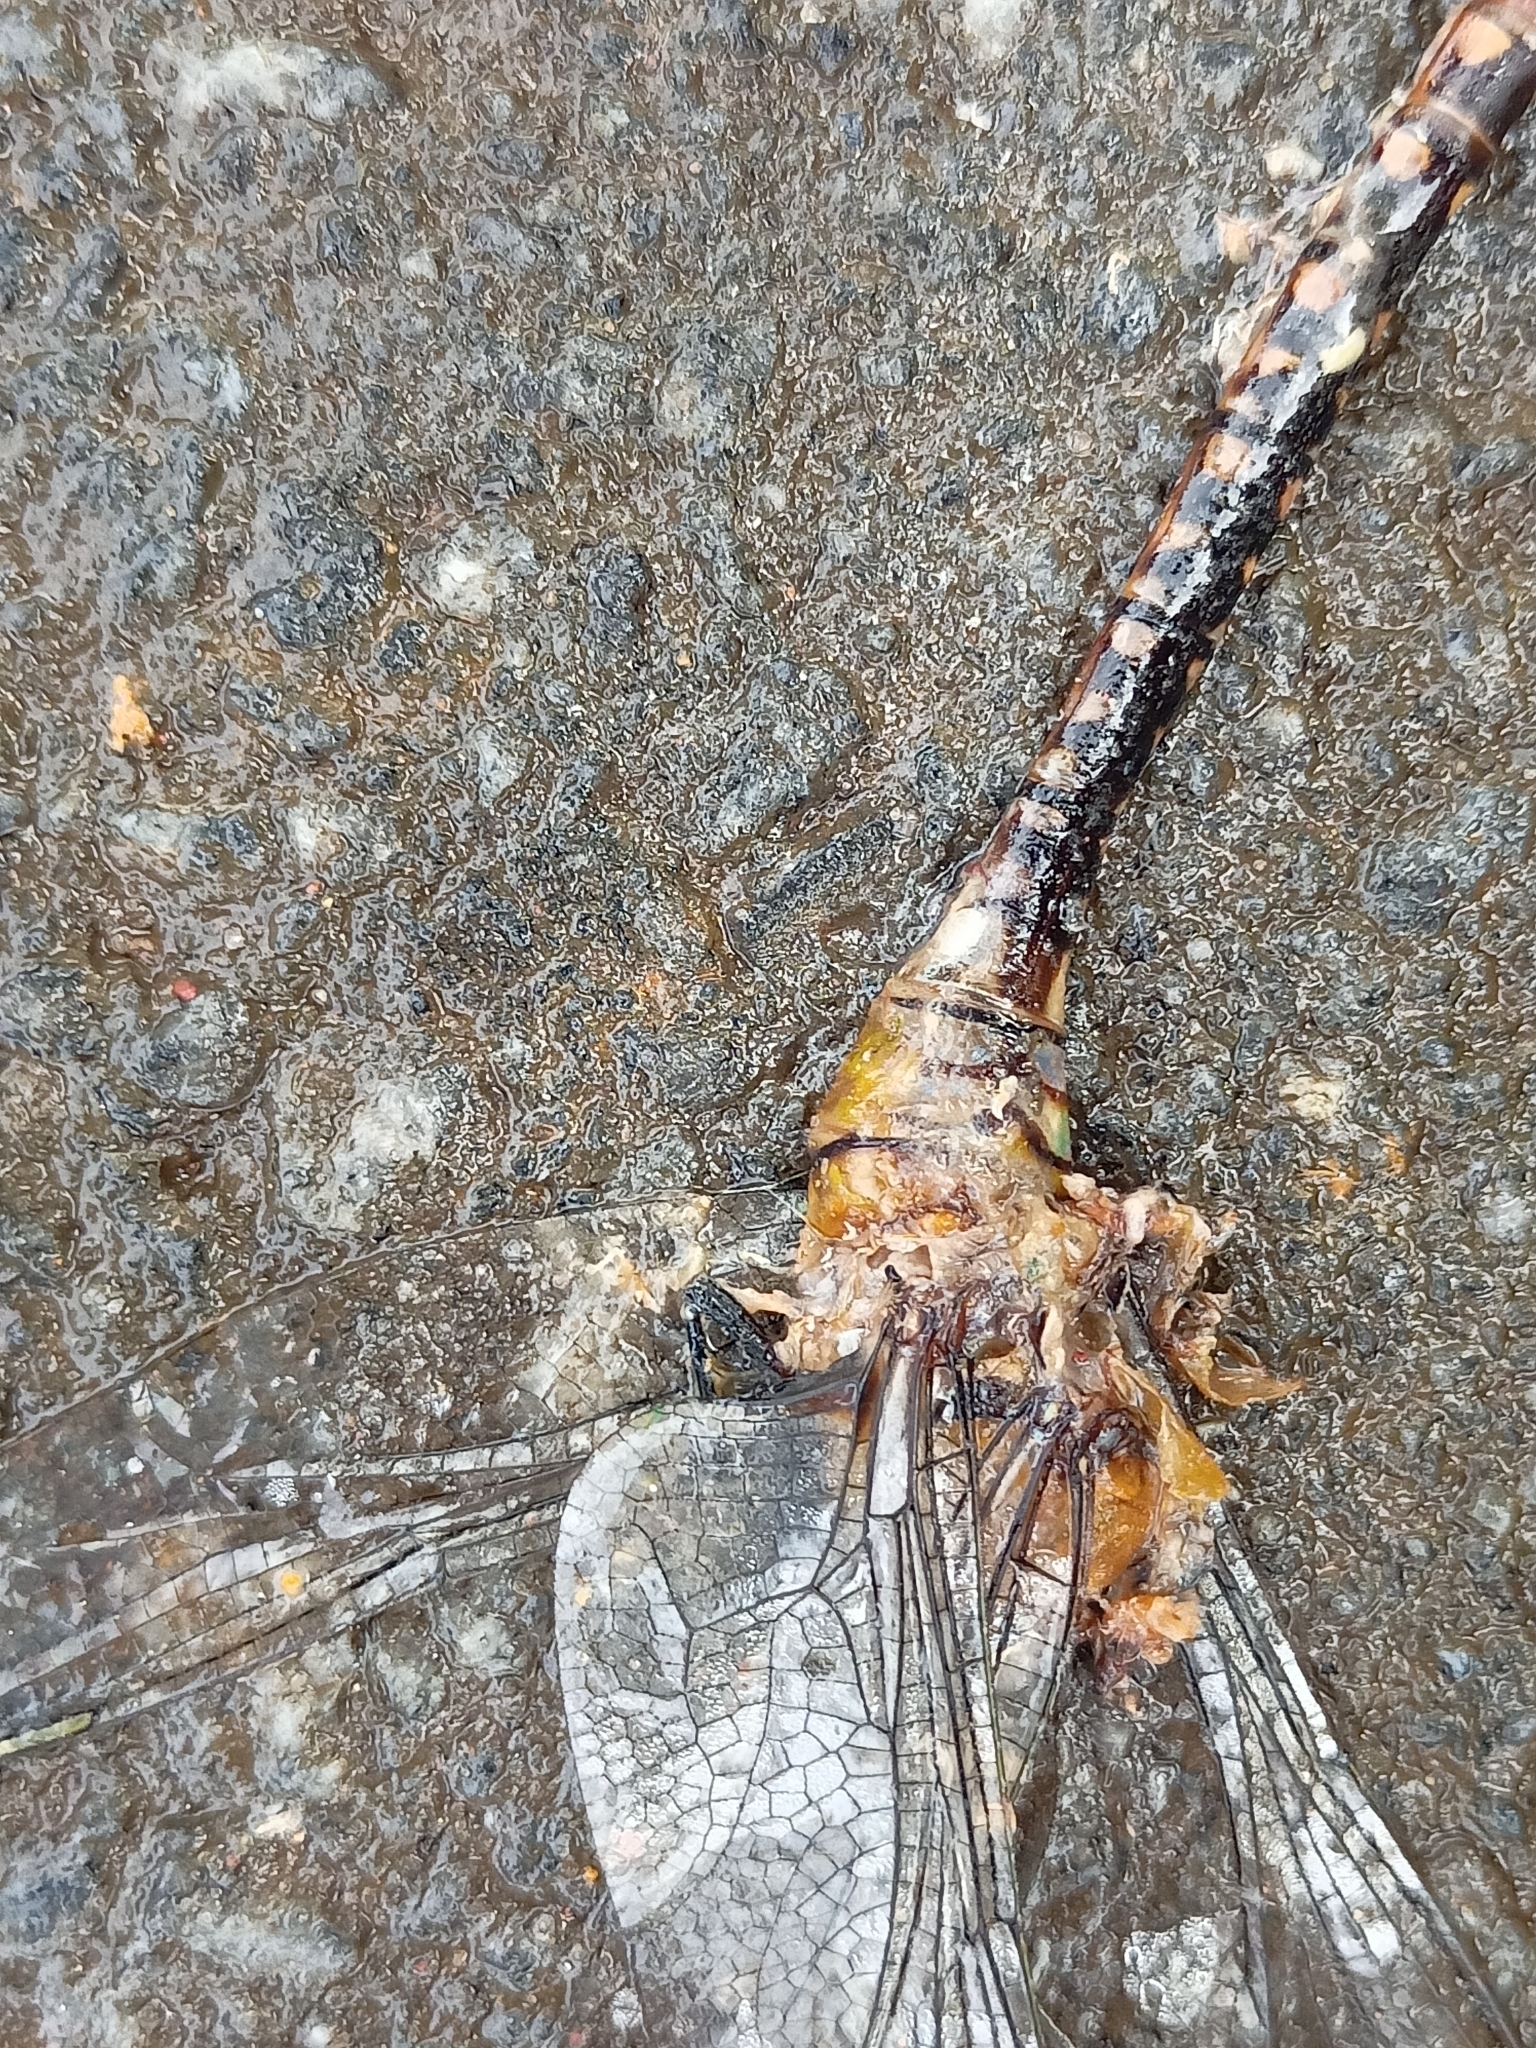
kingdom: Animalia
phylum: Arthropoda
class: Insecta
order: Odonata
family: Aeshnidae
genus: Anax
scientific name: Anax guttatus
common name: Emperor
